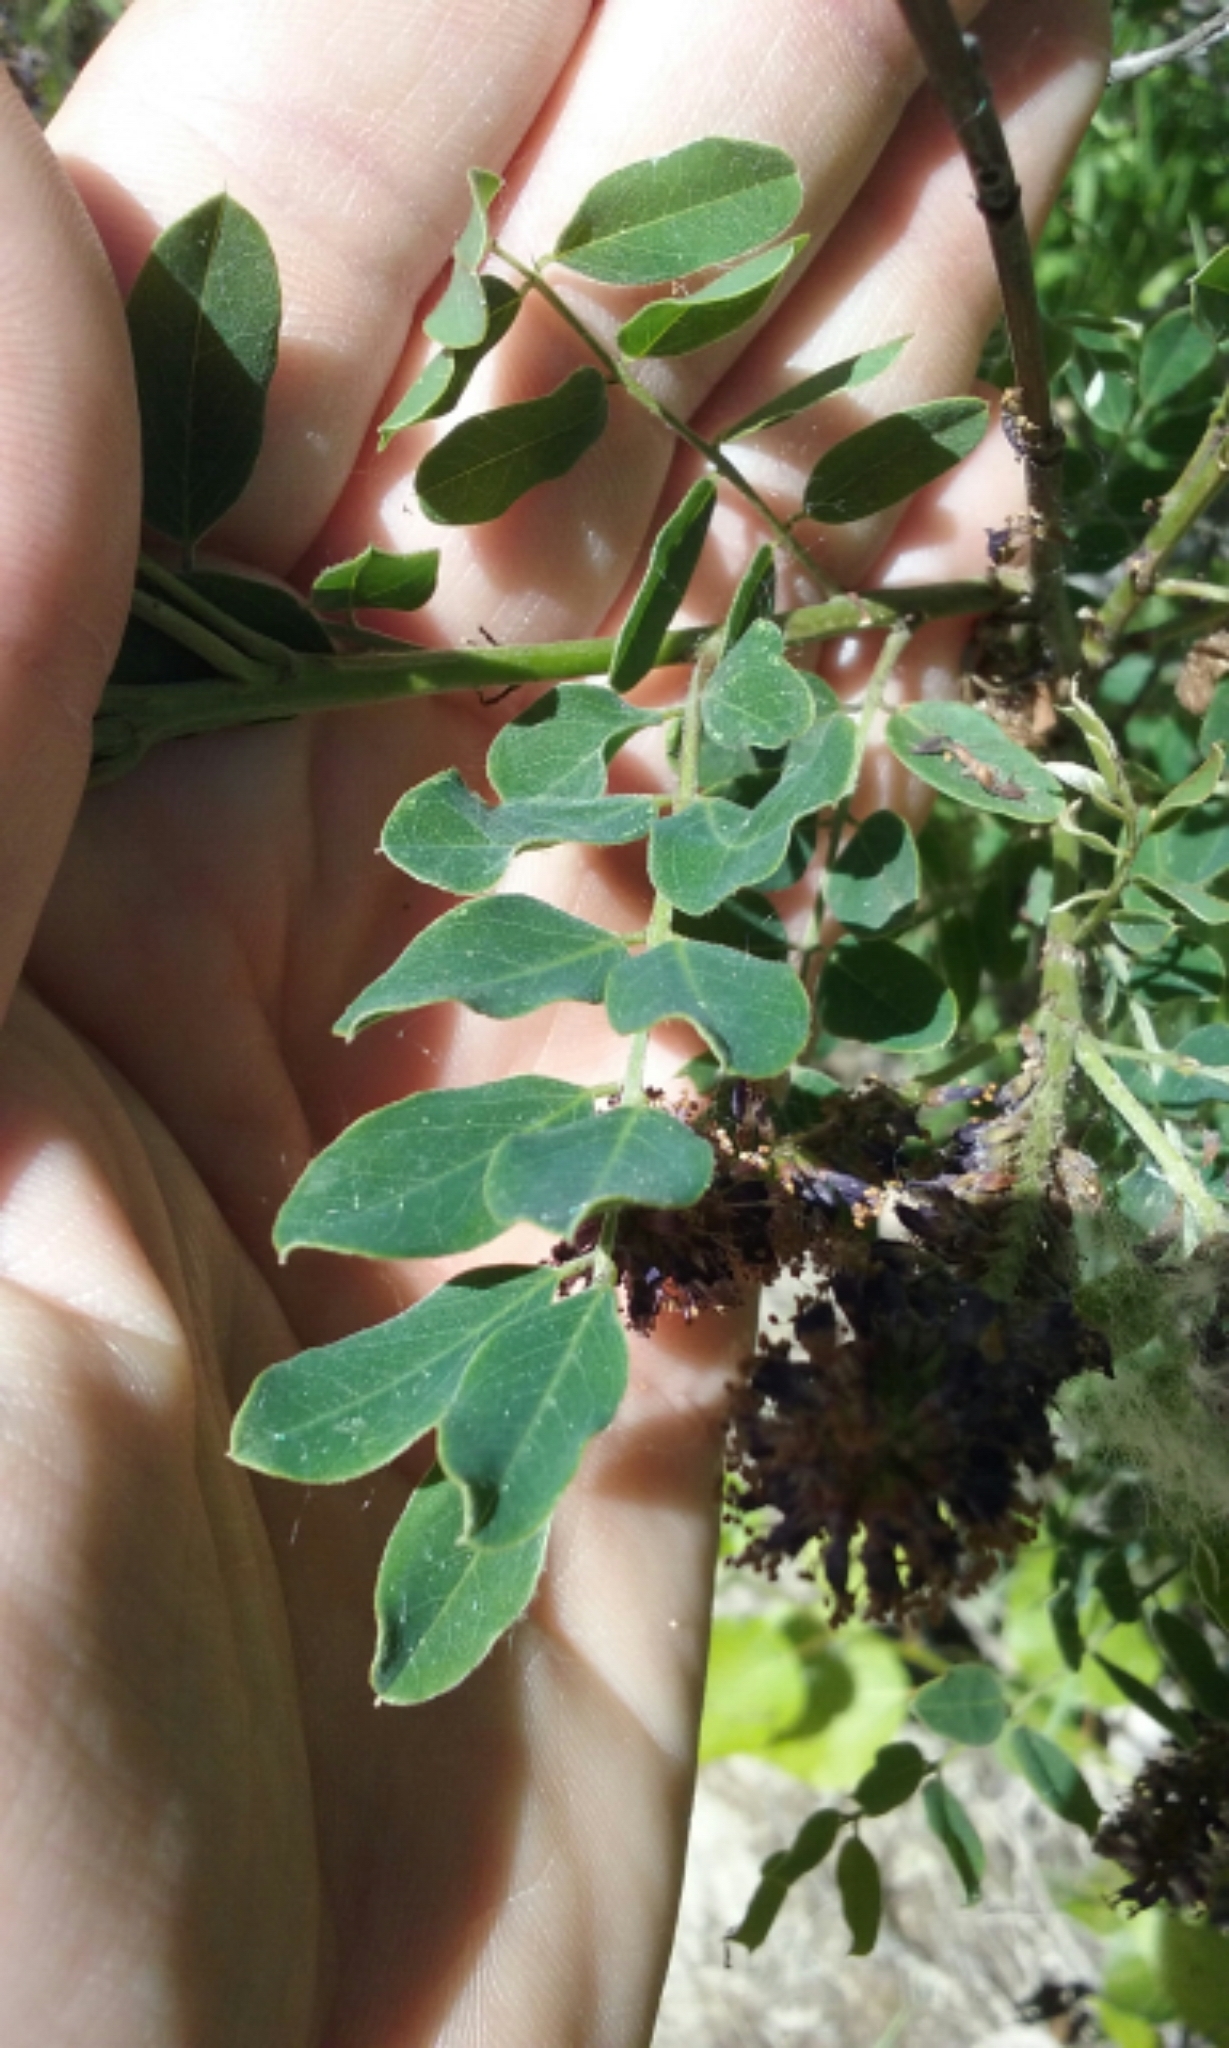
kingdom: Plantae
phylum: Tracheophyta
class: Magnoliopsida
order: Fabales
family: Fabaceae
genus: Amorpha
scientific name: Amorpha fruticosa
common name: False indigo
